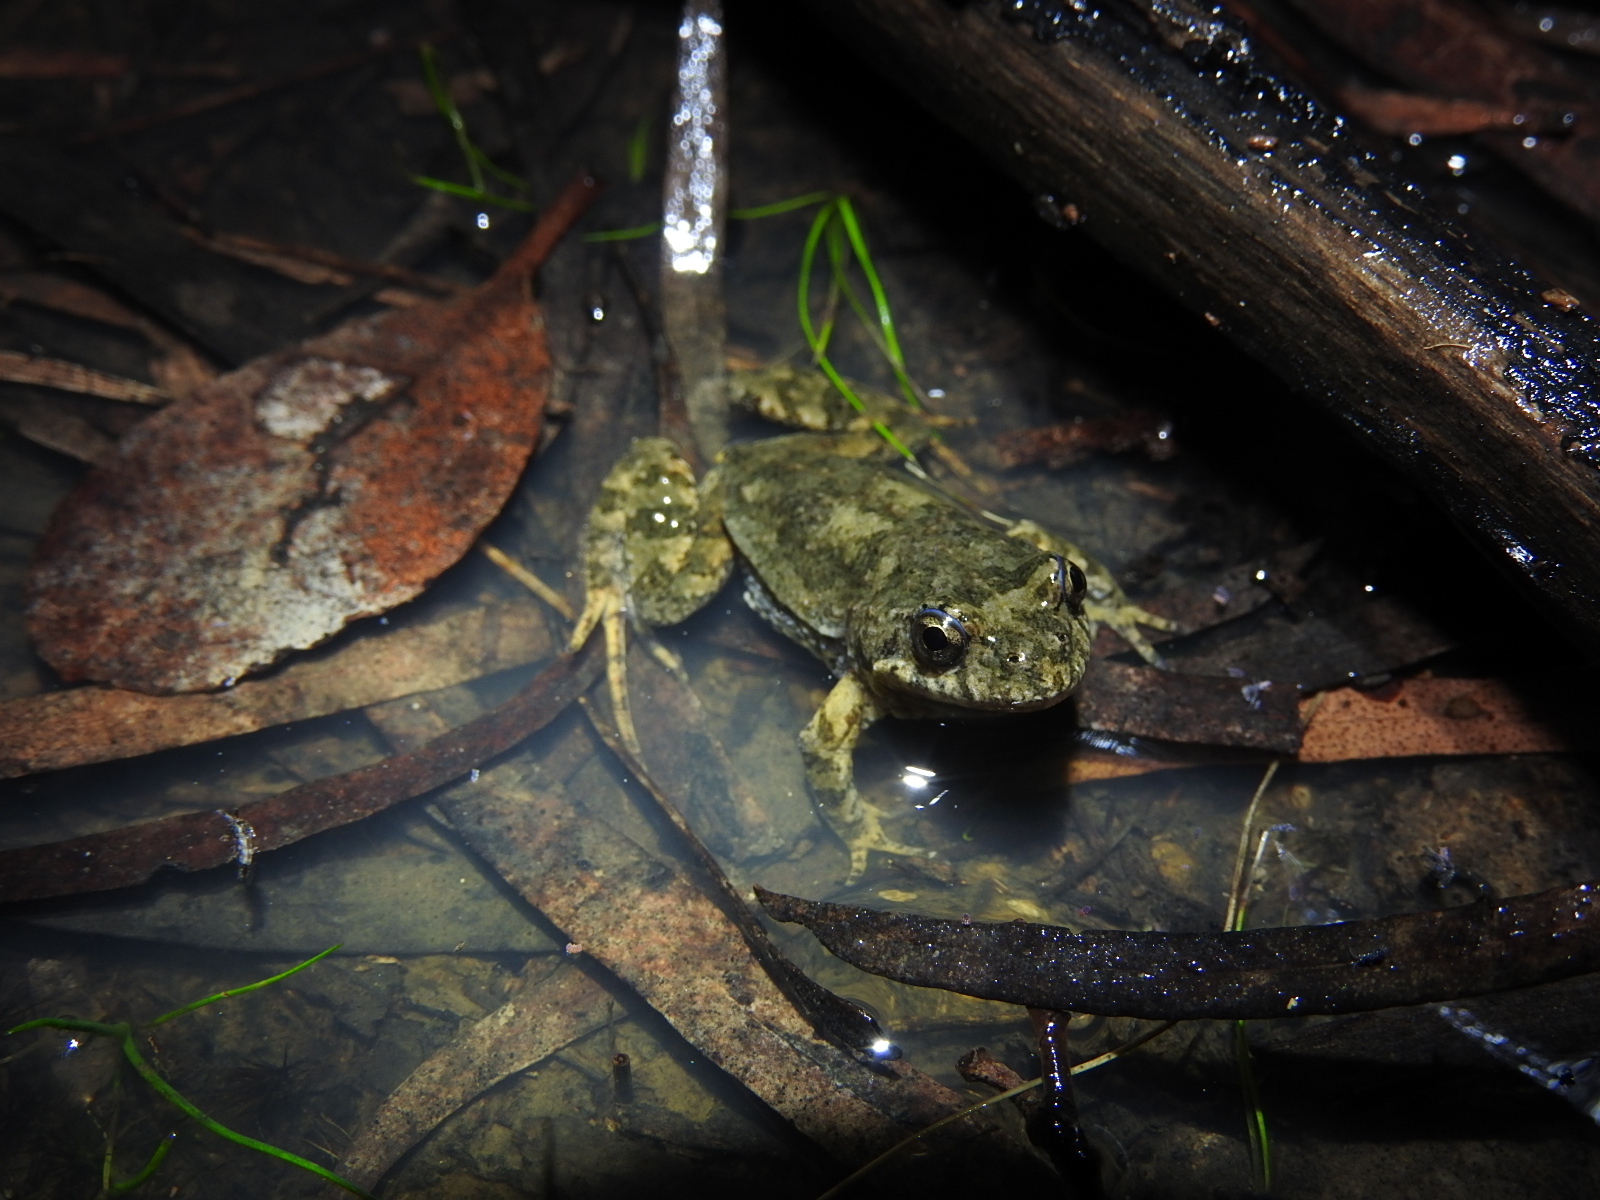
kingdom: Animalia
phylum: Chordata
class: Amphibia
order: Anura
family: Myobatrachidae
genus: Crinia
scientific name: Crinia signifera
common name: Brown froglet
